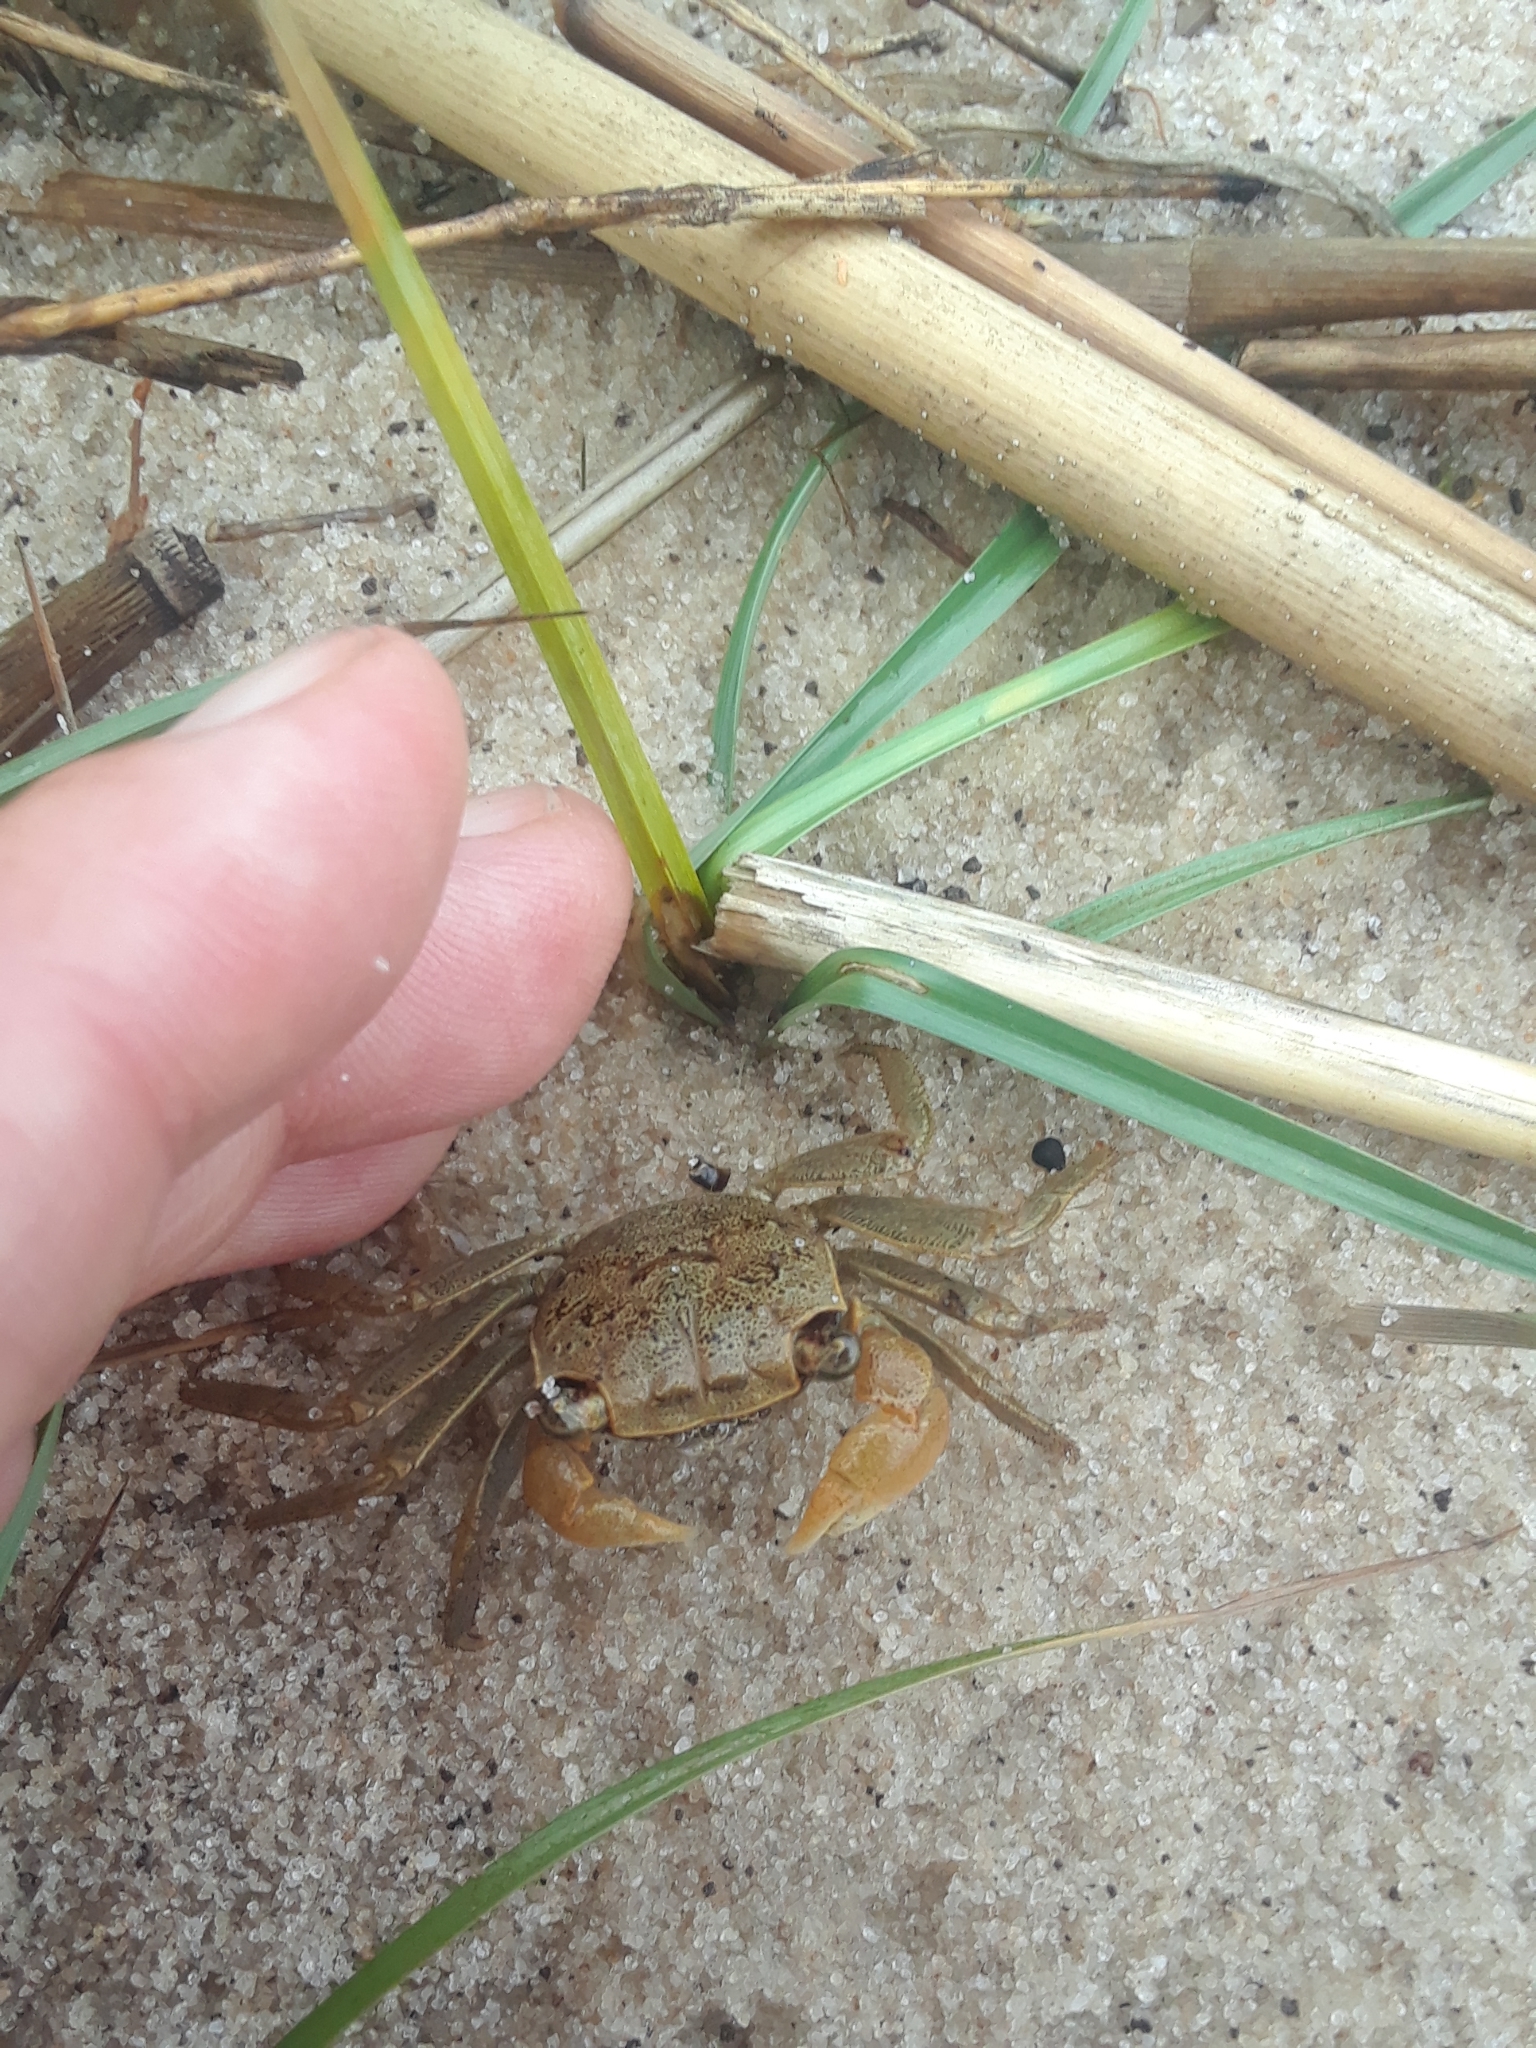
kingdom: Animalia
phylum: Arthropoda
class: Malacostraca
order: Decapoda
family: Sesarmidae
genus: Armases
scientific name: Armases cinereum
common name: Squareback marsh crab
